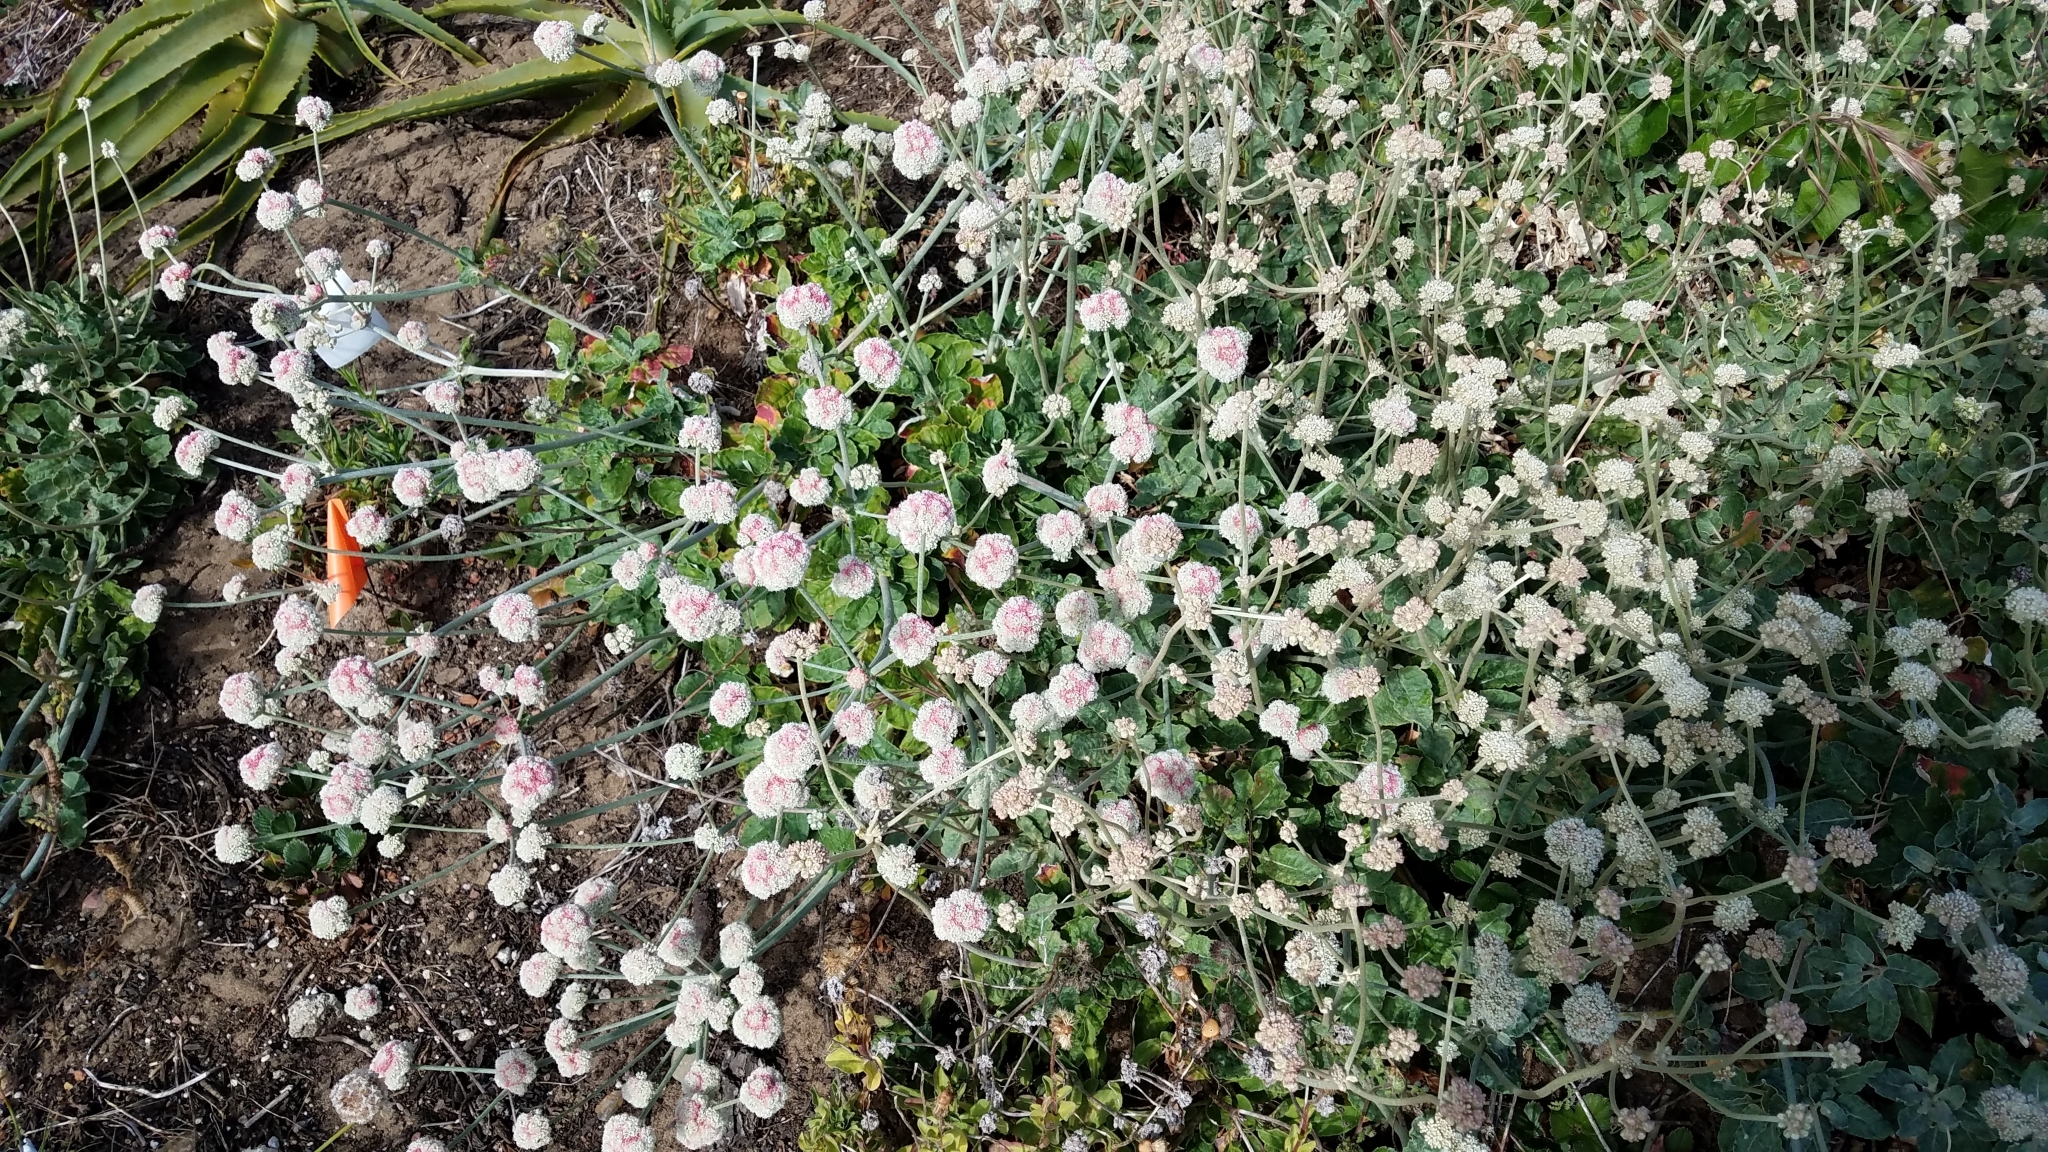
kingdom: Plantae
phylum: Tracheophyta
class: Magnoliopsida
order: Caryophyllales
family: Polygonaceae
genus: Eriogonum
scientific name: Eriogonum latifolium
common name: Seaside wild buckwheat
